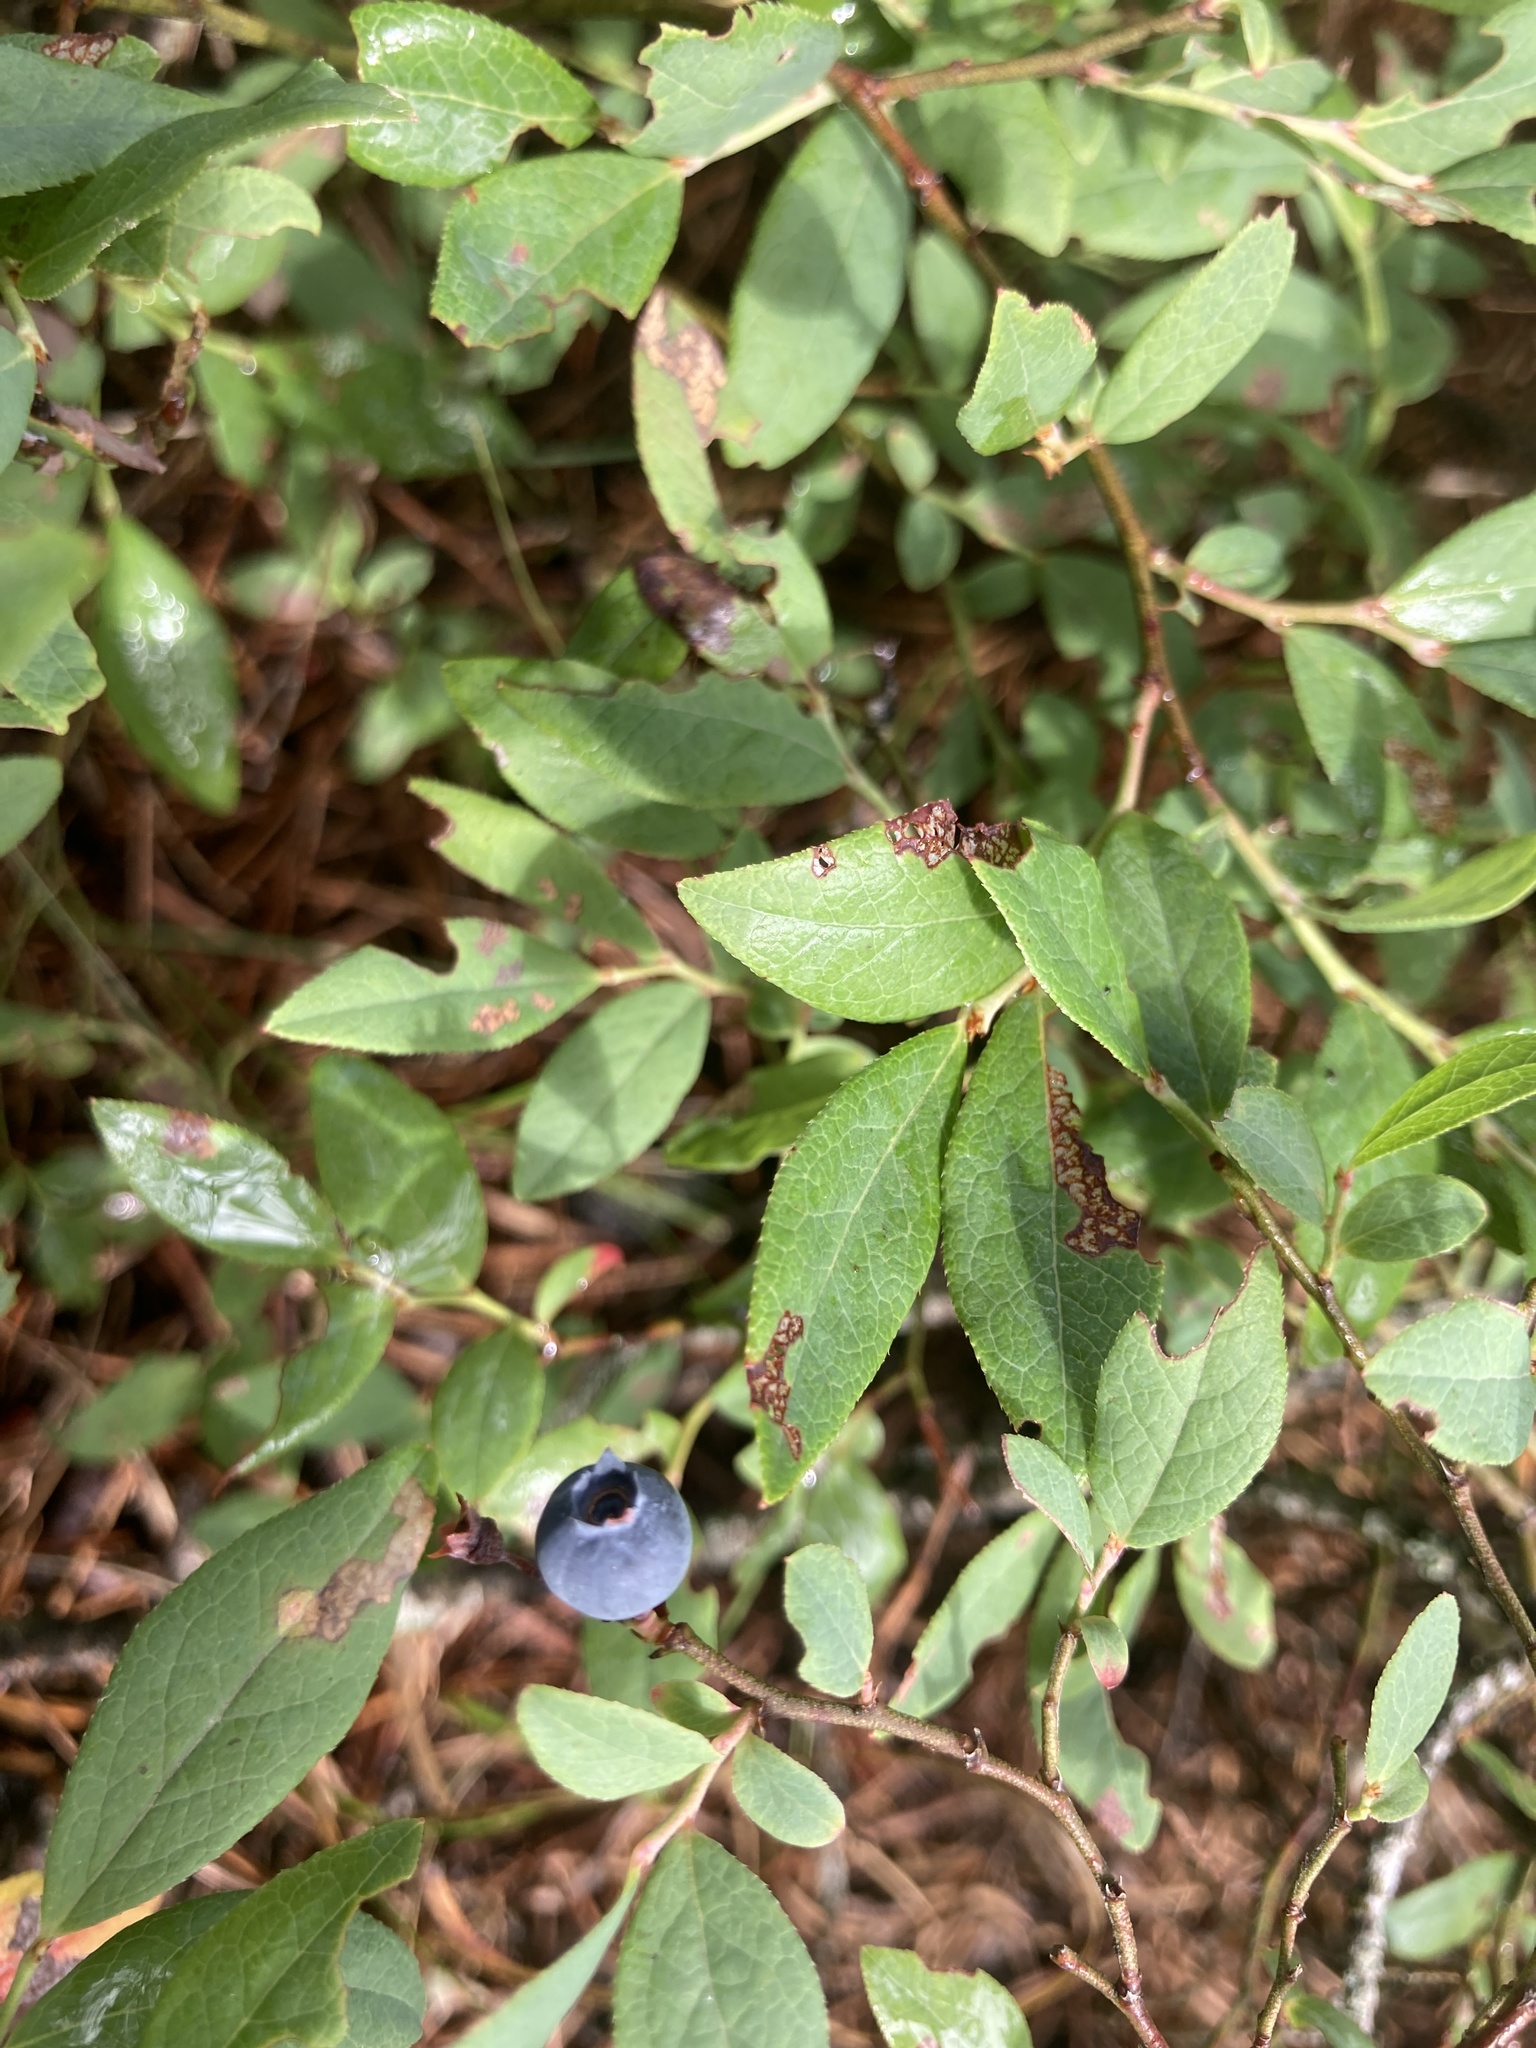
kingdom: Plantae
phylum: Tracheophyta
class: Magnoliopsida
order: Ericales
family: Ericaceae
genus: Vaccinium
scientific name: Vaccinium angustifolium
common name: Early lowbush blueberry
